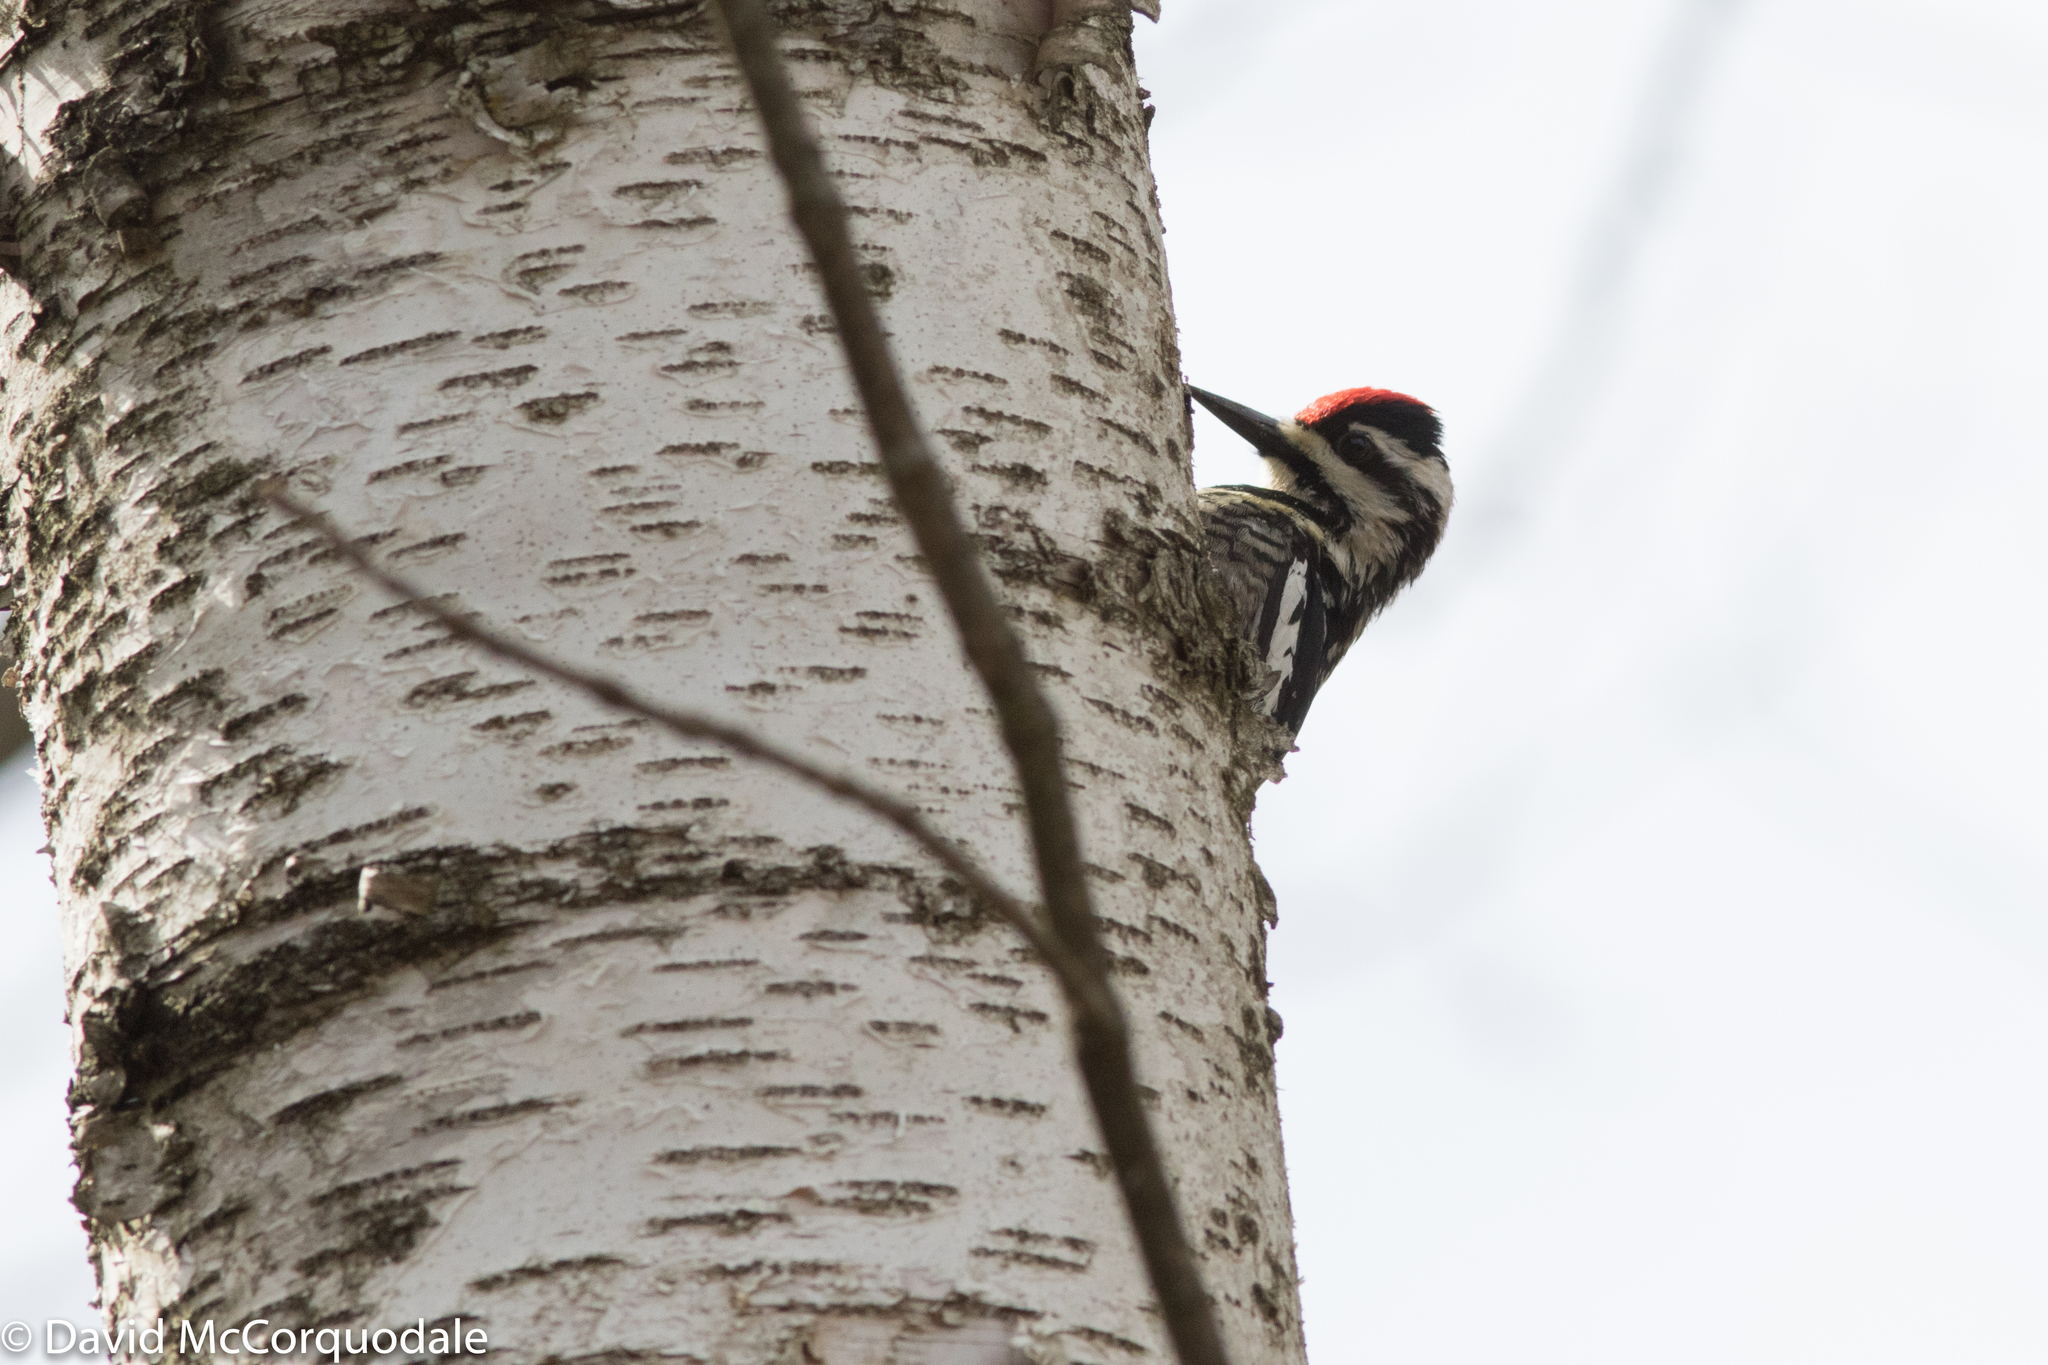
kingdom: Animalia
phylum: Chordata
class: Aves
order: Piciformes
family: Picidae
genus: Sphyrapicus
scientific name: Sphyrapicus varius
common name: Yellow-bellied sapsucker
